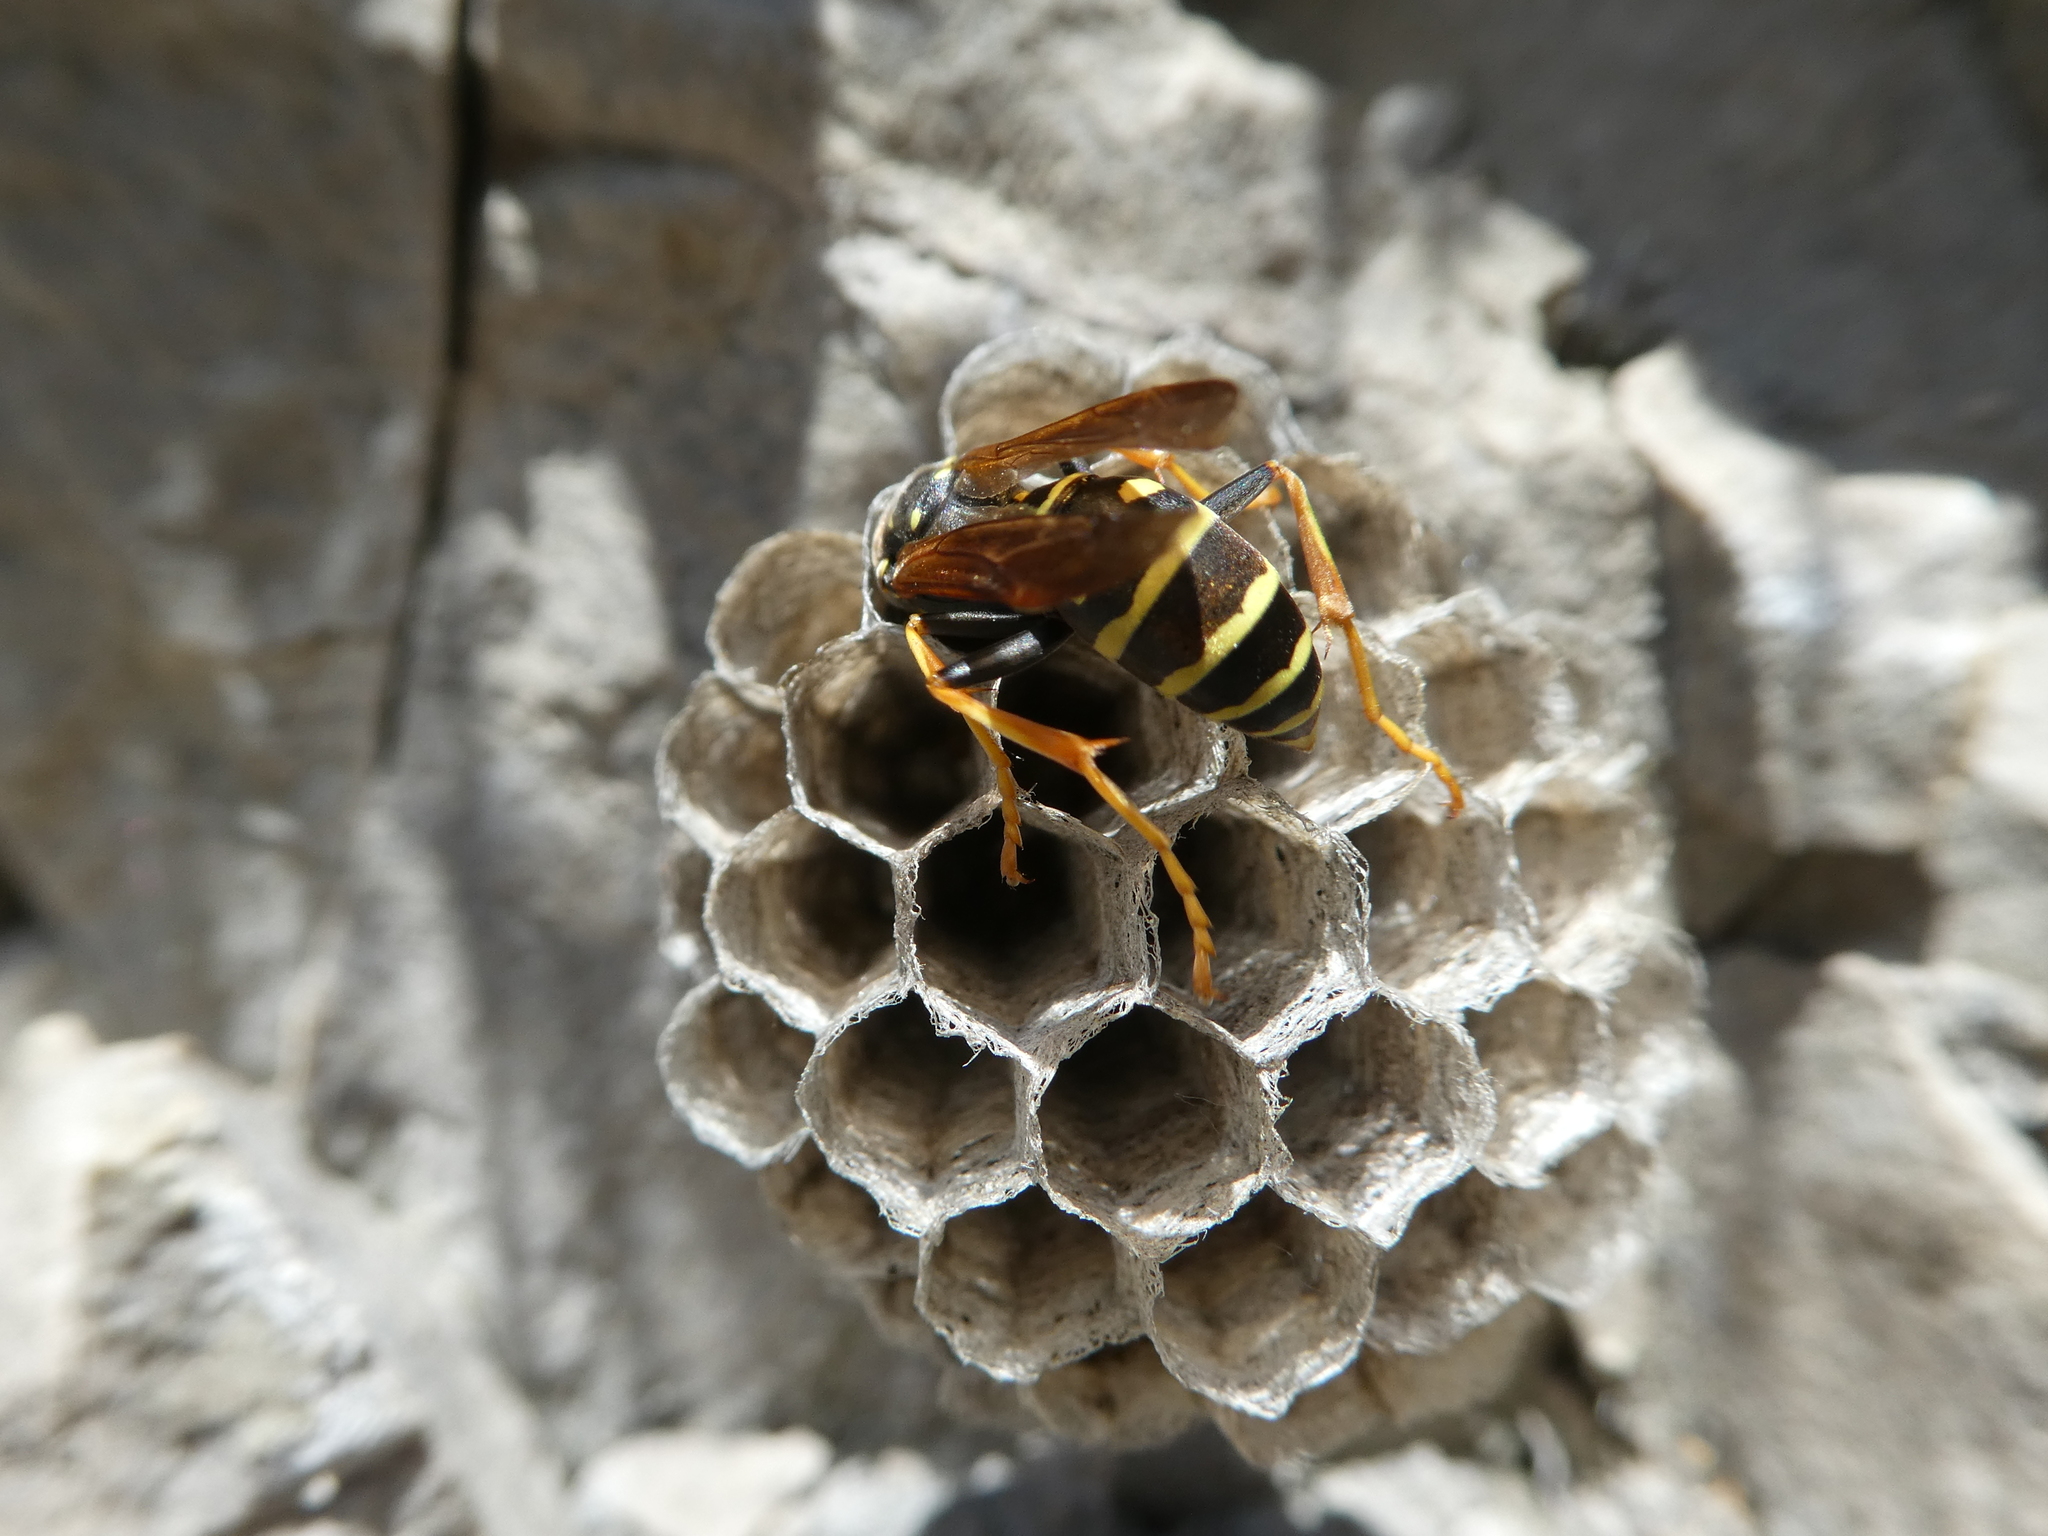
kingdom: Animalia
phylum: Arthropoda
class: Insecta
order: Hymenoptera
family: Eumenidae
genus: Polistes
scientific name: Polistes biglumis
